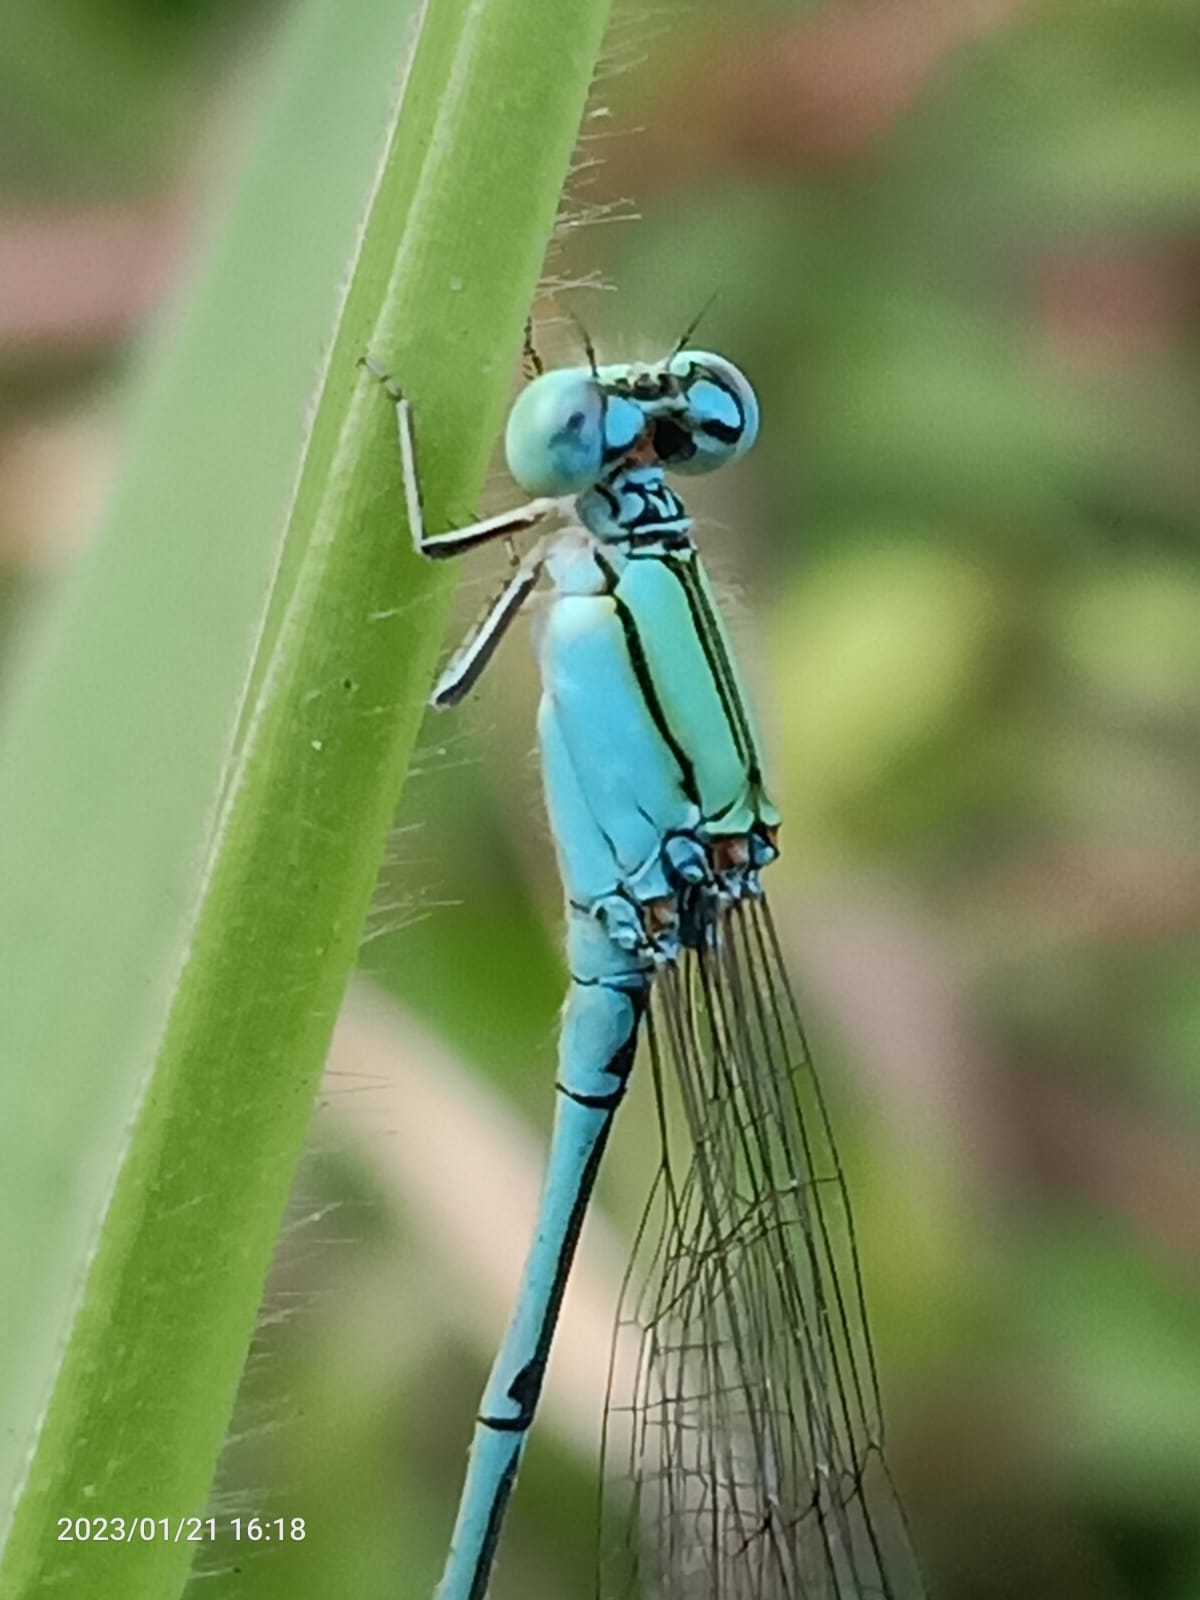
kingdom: Animalia
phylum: Arthropoda
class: Insecta
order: Odonata
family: Coenagrionidae
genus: Pseudagrion
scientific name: Pseudagrion decorum
